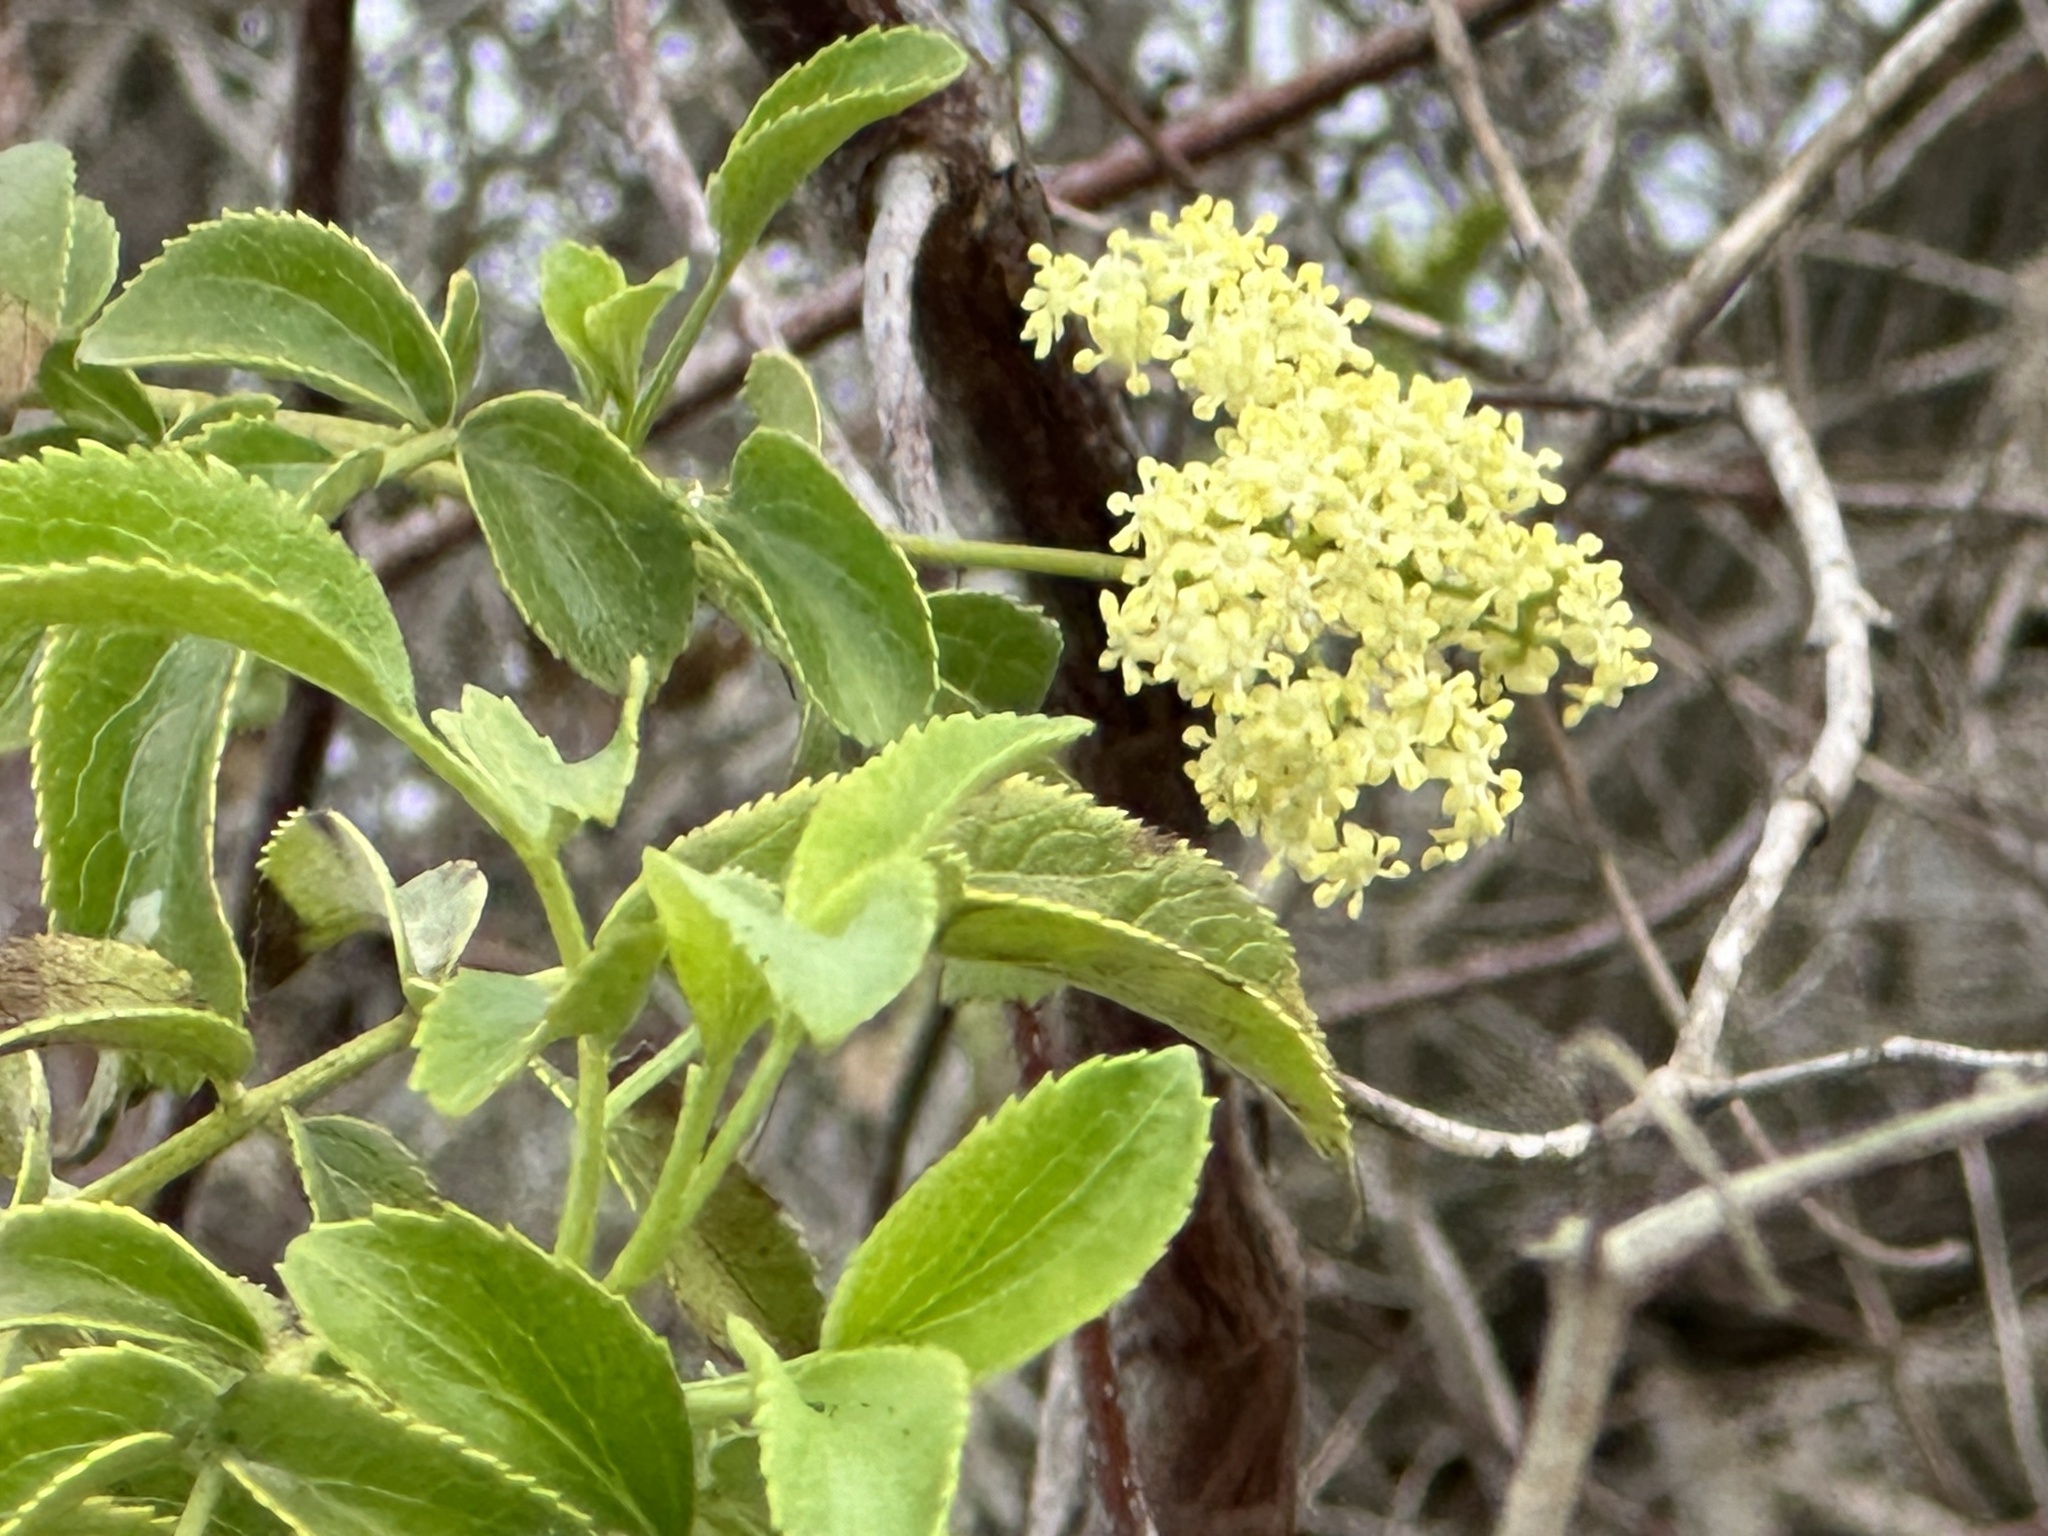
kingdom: Plantae
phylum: Tracheophyta
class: Magnoliopsida
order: Dipsacales
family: Viburnaceae
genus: Sambucus
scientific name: Sambucus cerulea
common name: Blue elder
